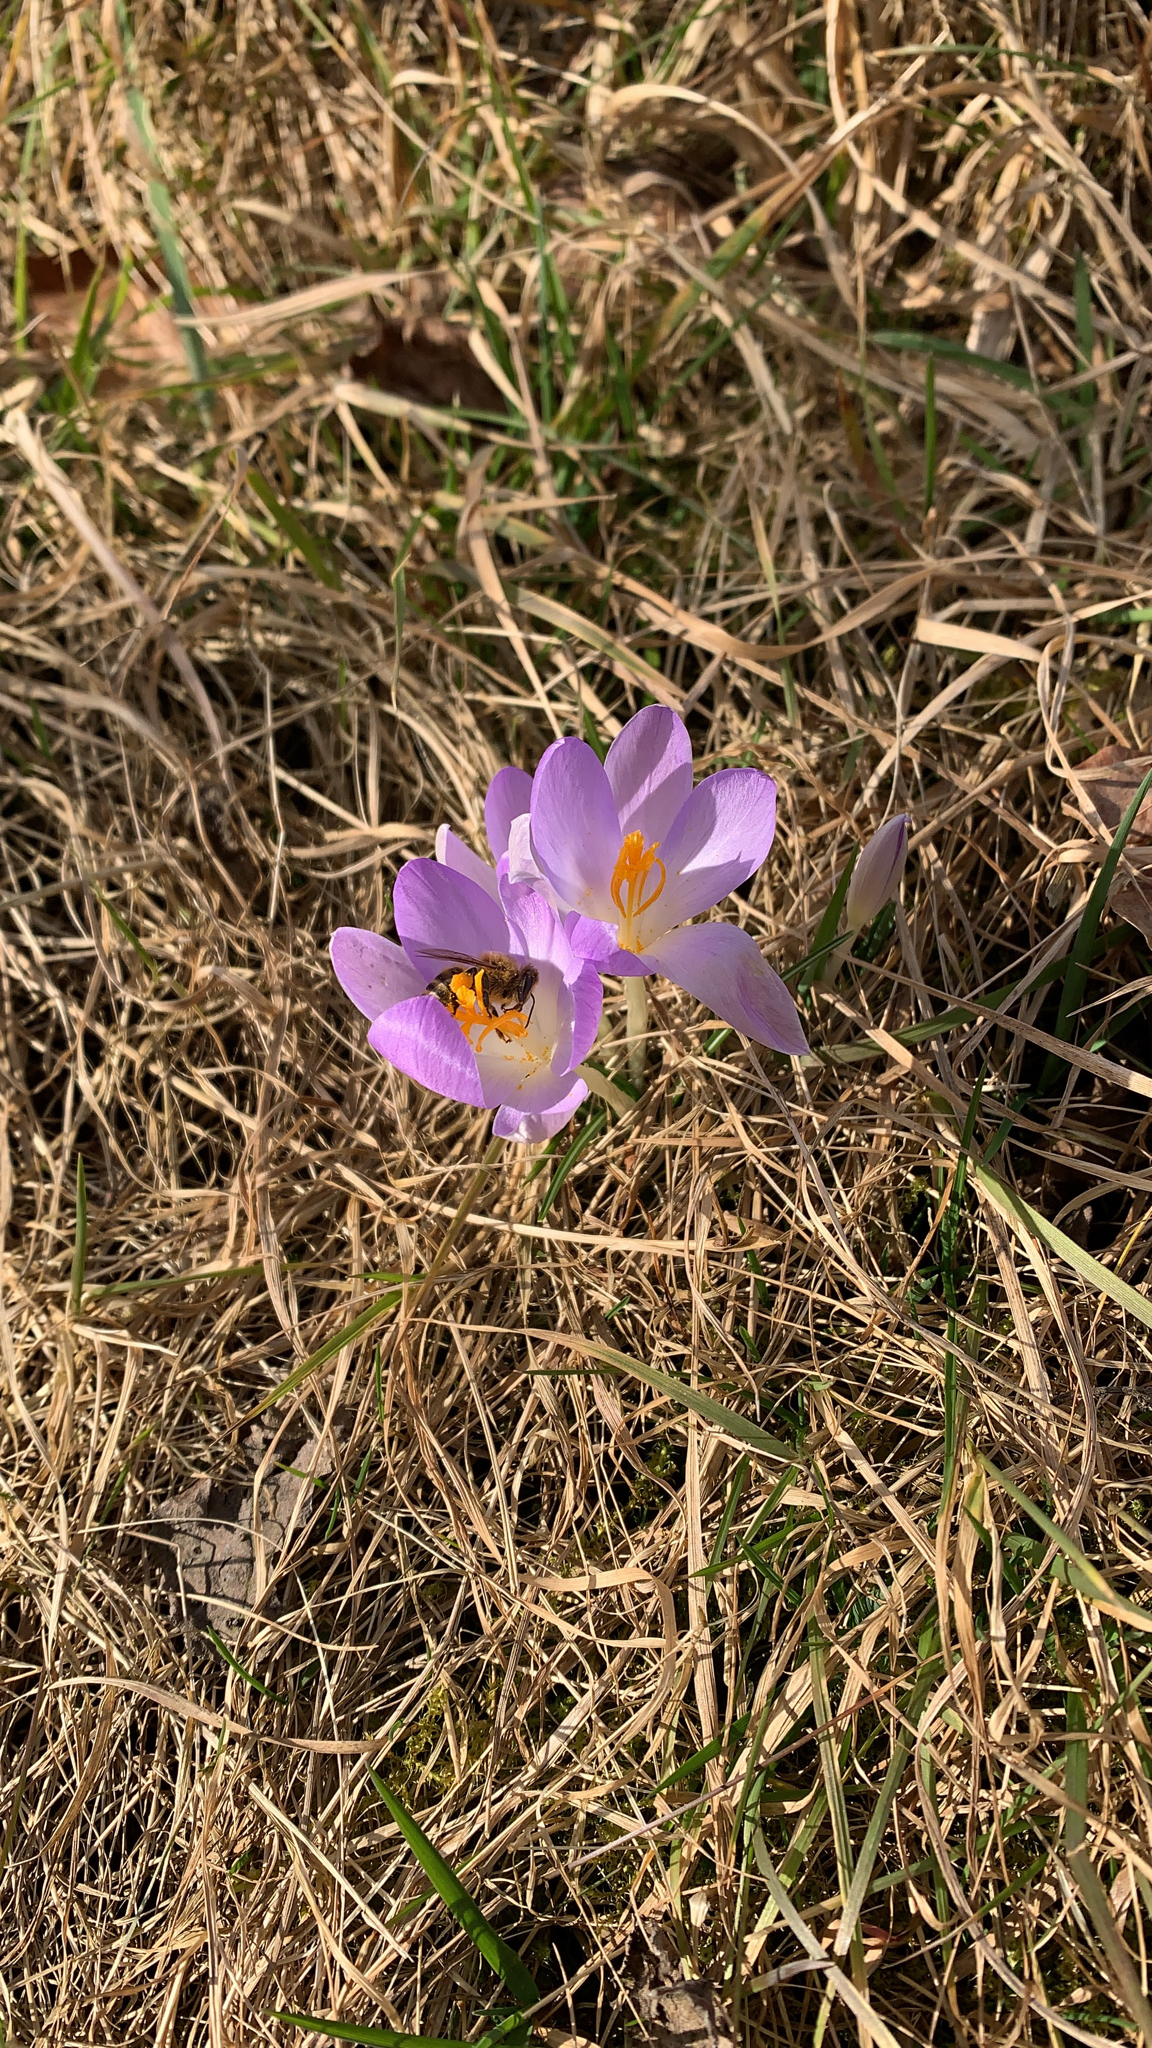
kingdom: Plantae
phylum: Tracheophyta
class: Liliopsida
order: Asparagales
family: Iridaceae
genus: Crocus
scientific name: Crocus tommasinianus
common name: Early crocus
